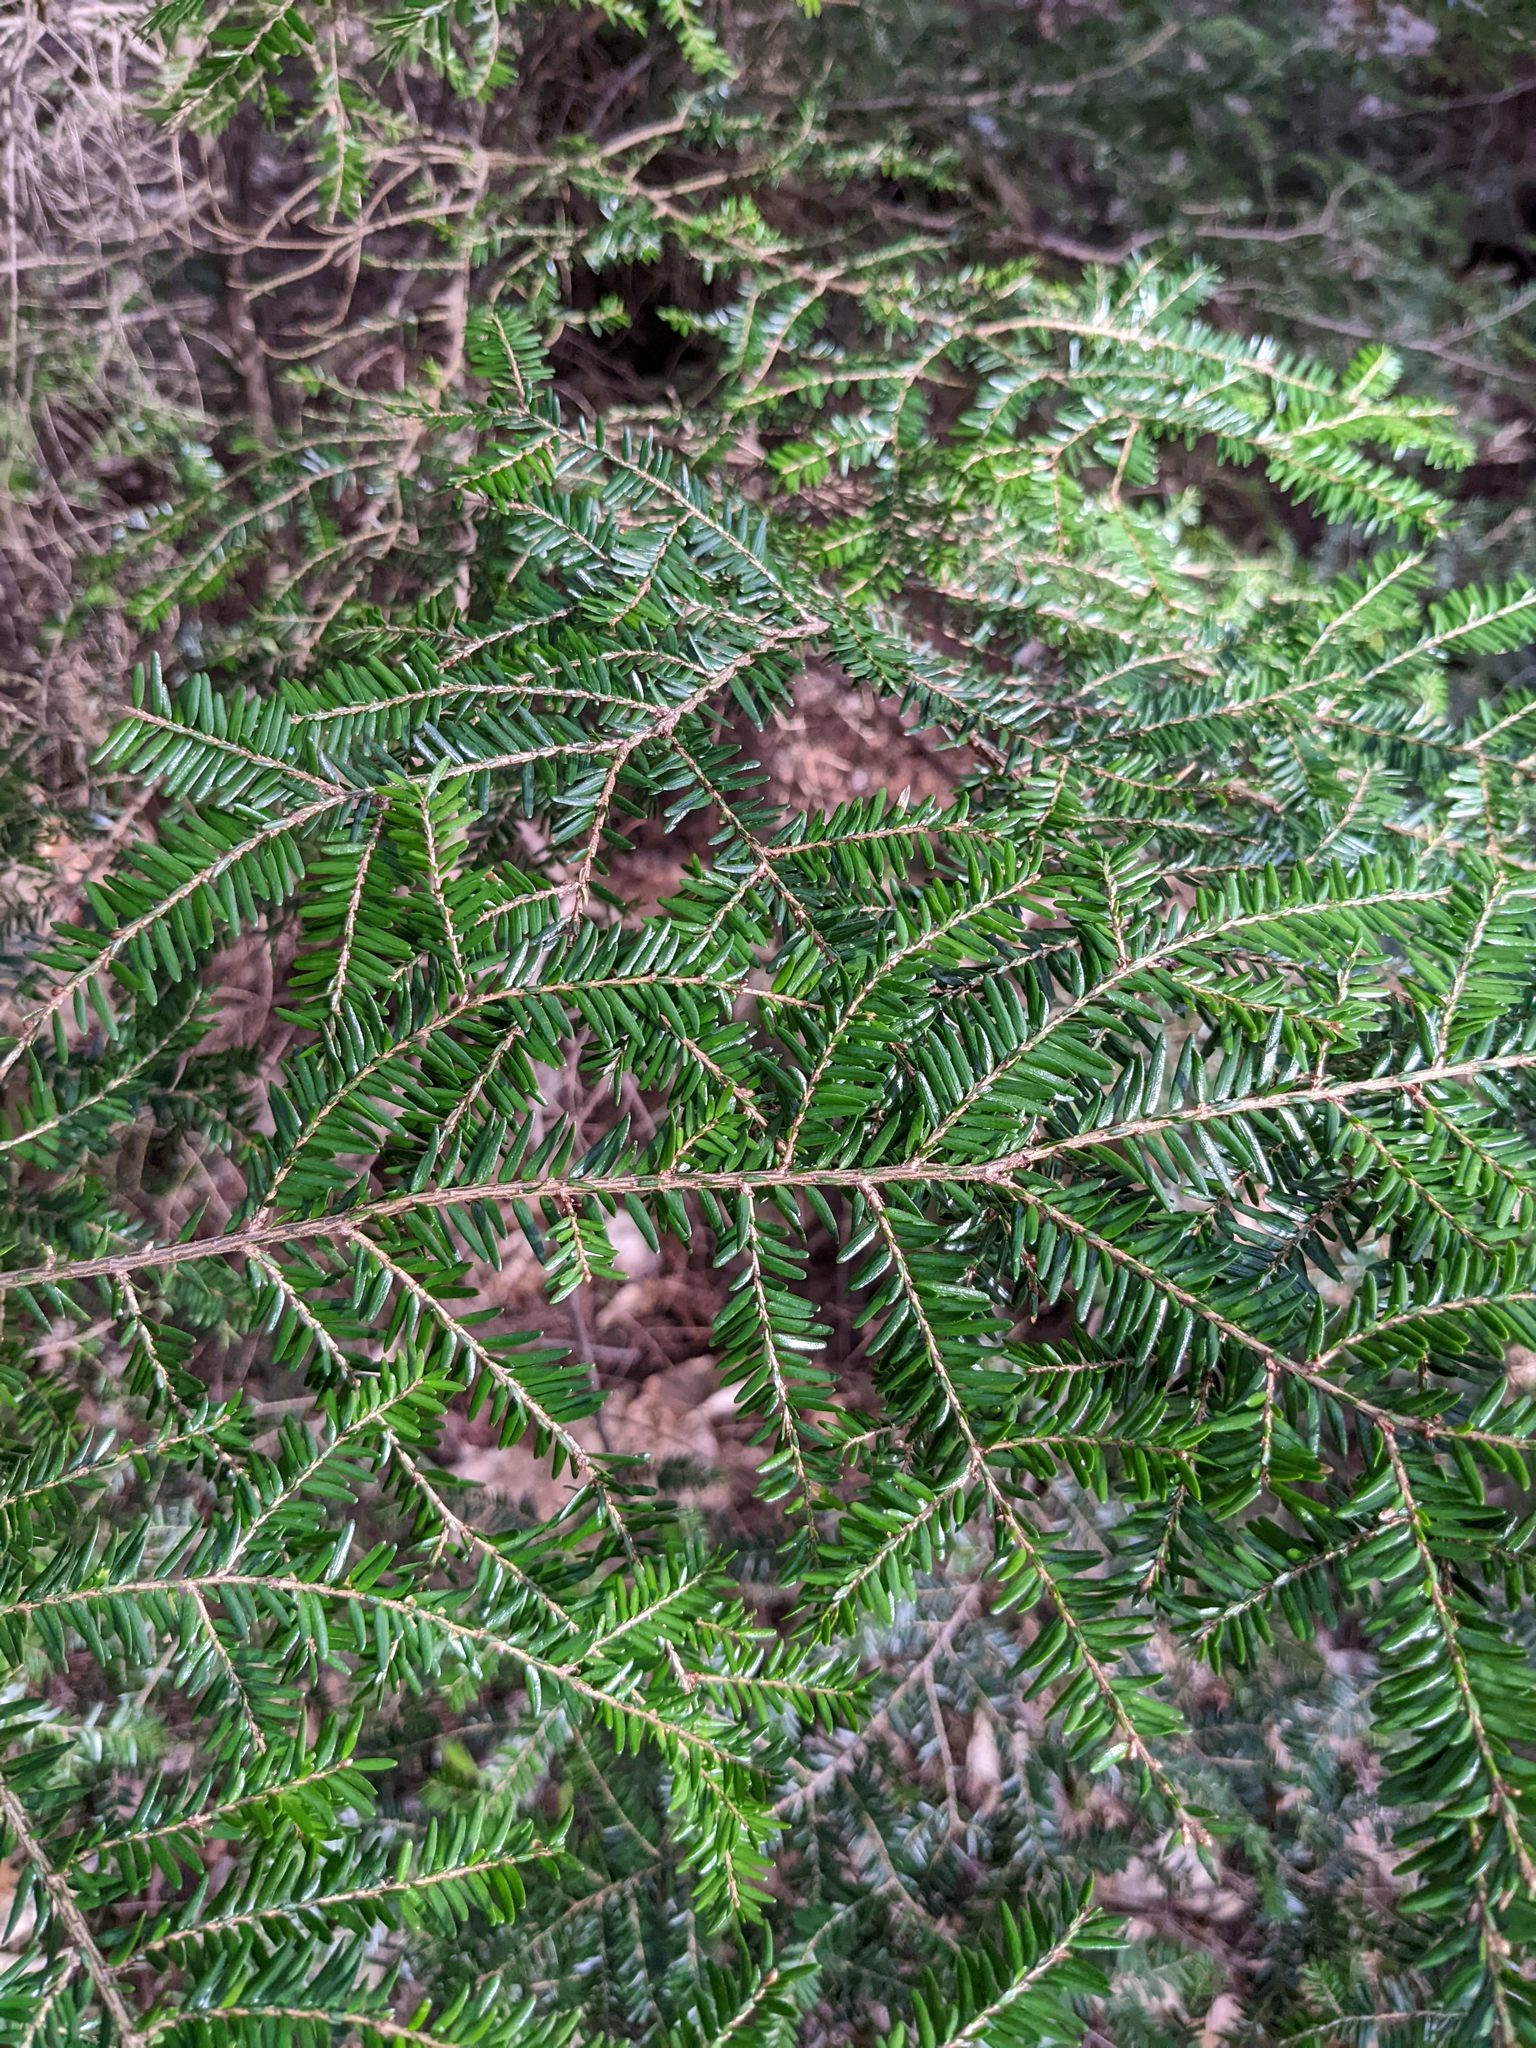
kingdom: Plantae
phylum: Tracheophyta
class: Pinopsida
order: Pinales
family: Pinaceae
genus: Tsuga
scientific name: Tsuga canadensis
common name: Eastern hemlock
